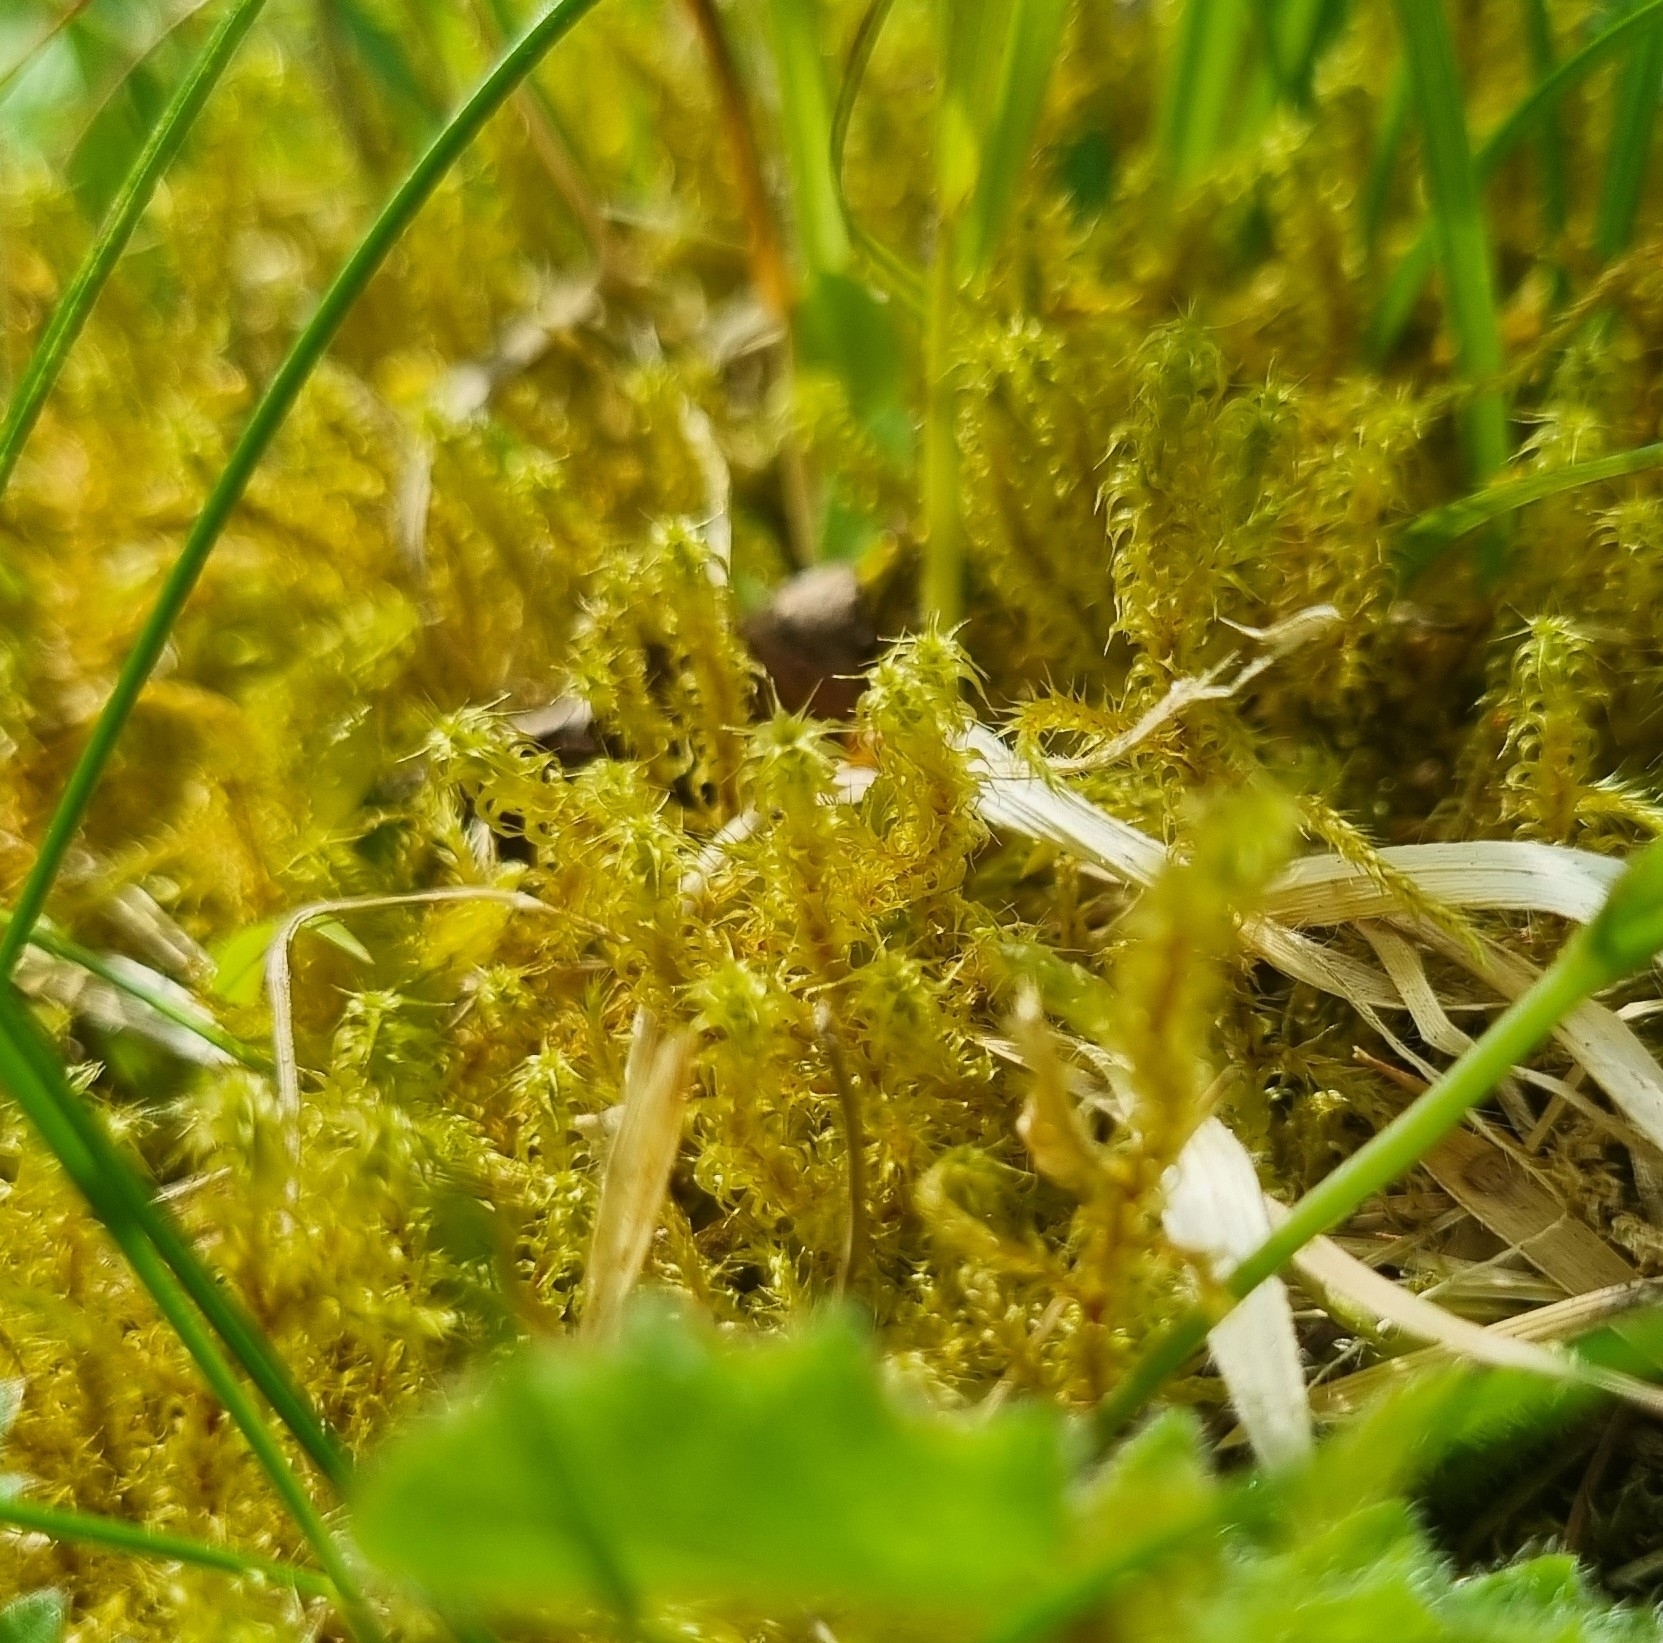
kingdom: Plantae
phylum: Bryophyta
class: Bryopsida
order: Hypnales
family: Hylocomiaceae
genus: Rhytidiadelphus
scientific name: Rhytidiadelphus squarrosus
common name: Springy turf-moss
